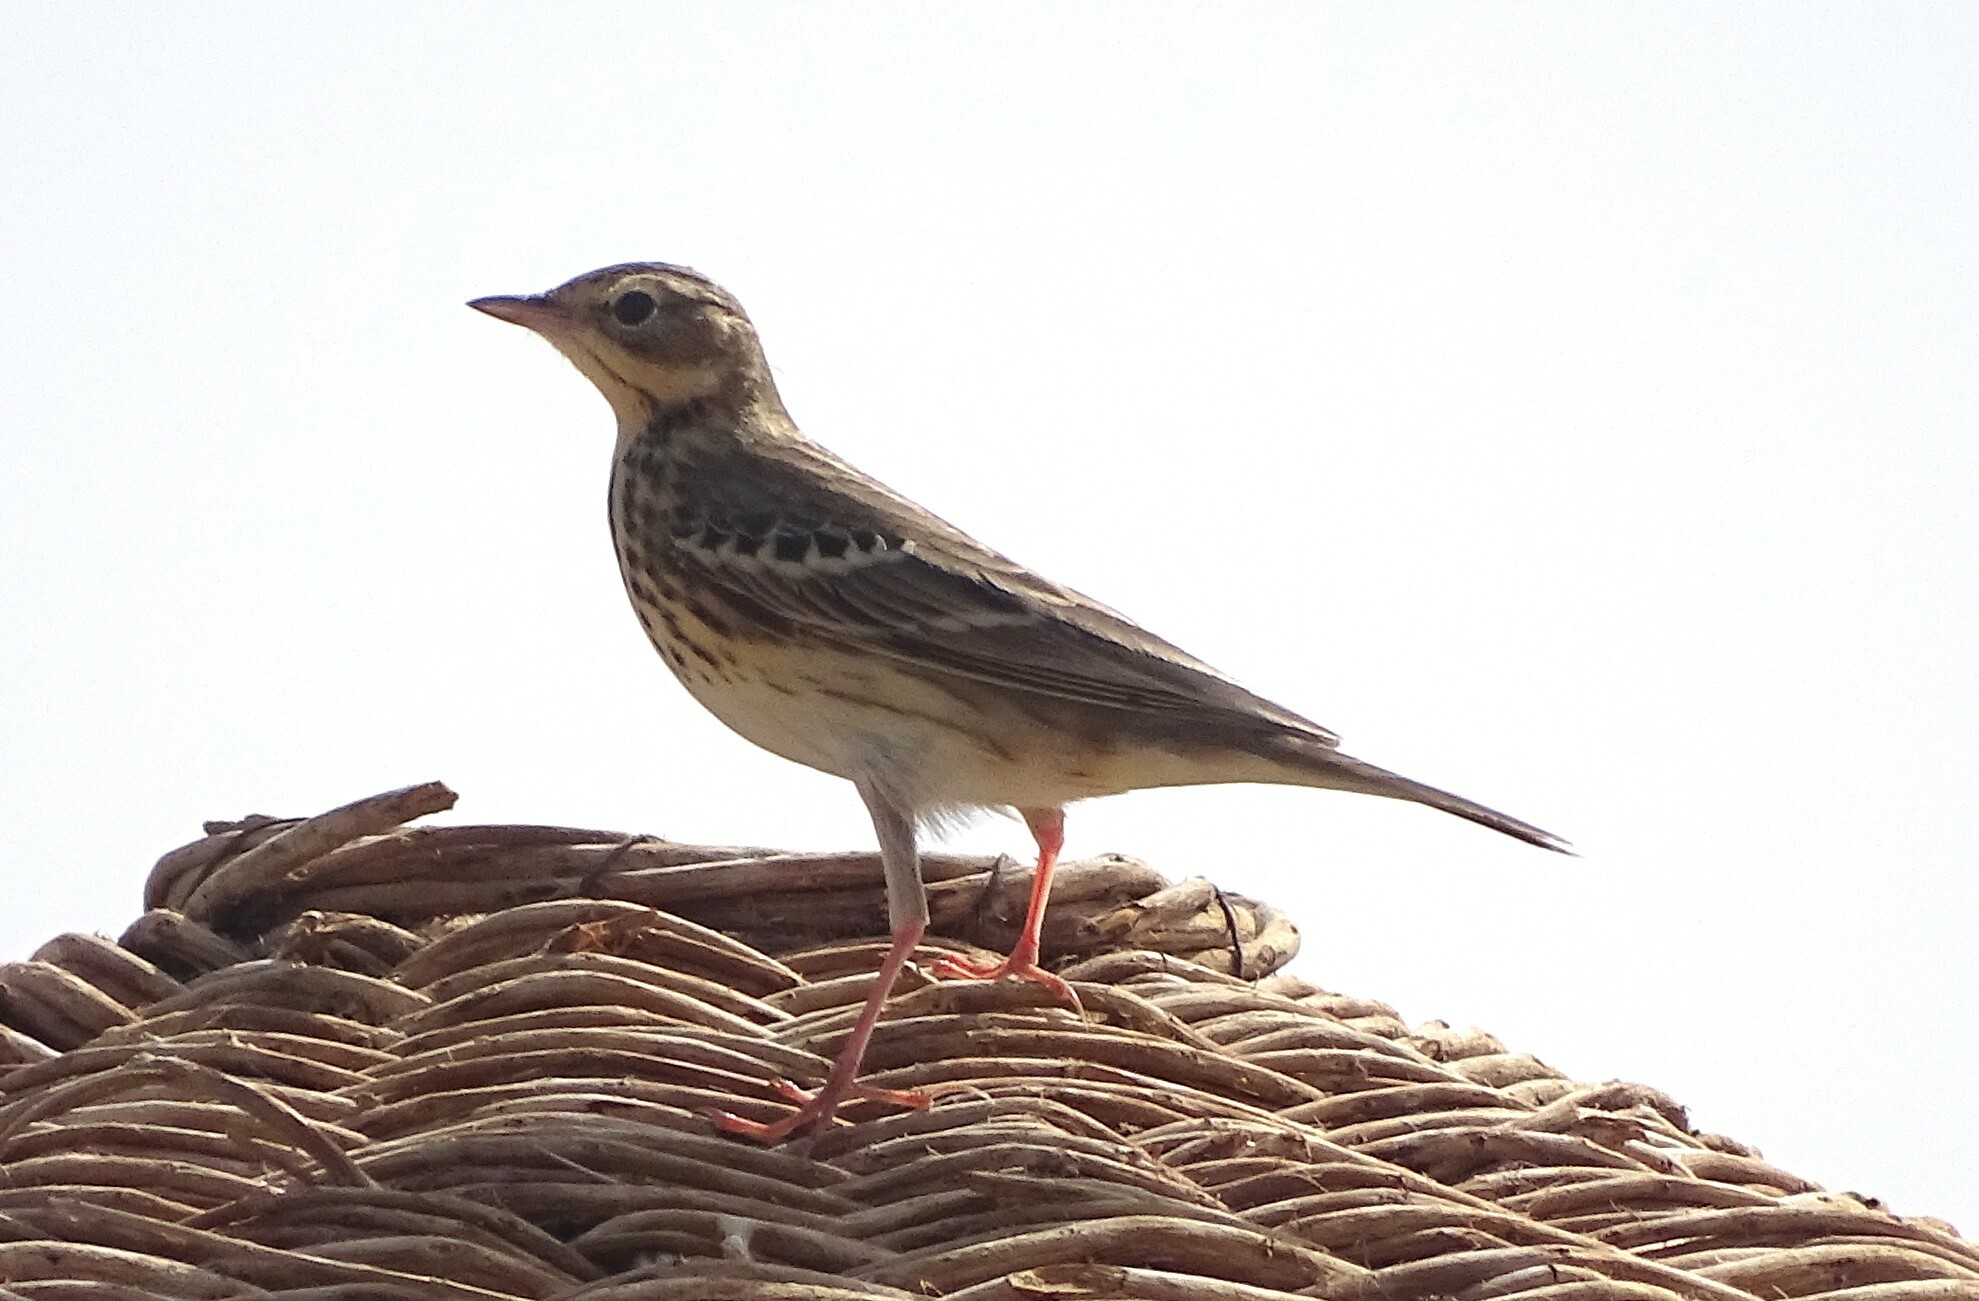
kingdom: Animalia
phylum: Chordata
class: Aves
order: Passeriformes
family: Motacillidae
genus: Anthus
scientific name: Anthus trivialis
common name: Tree pipit
